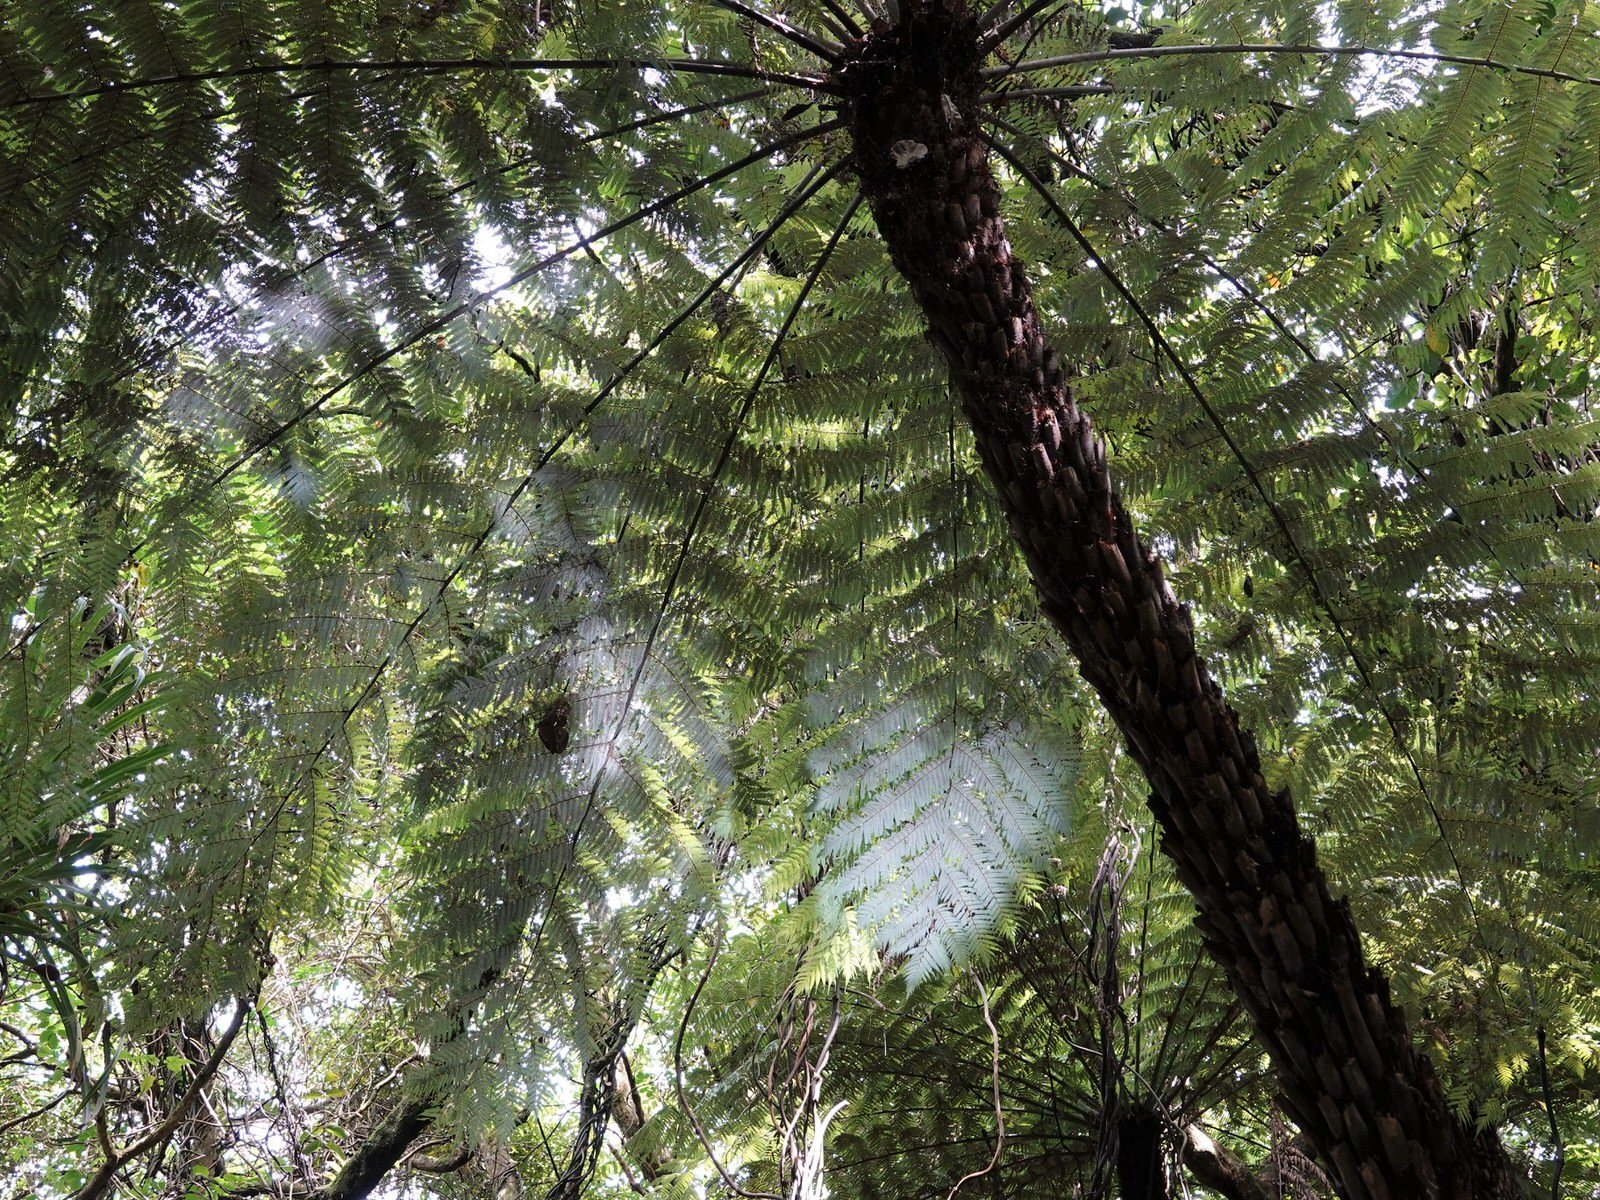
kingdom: Plantae
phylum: Tracheophyta
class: Polypodiopsida
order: Cyatheales
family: Cyatheaceae
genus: Alsophila
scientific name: Alsophila dealbata
